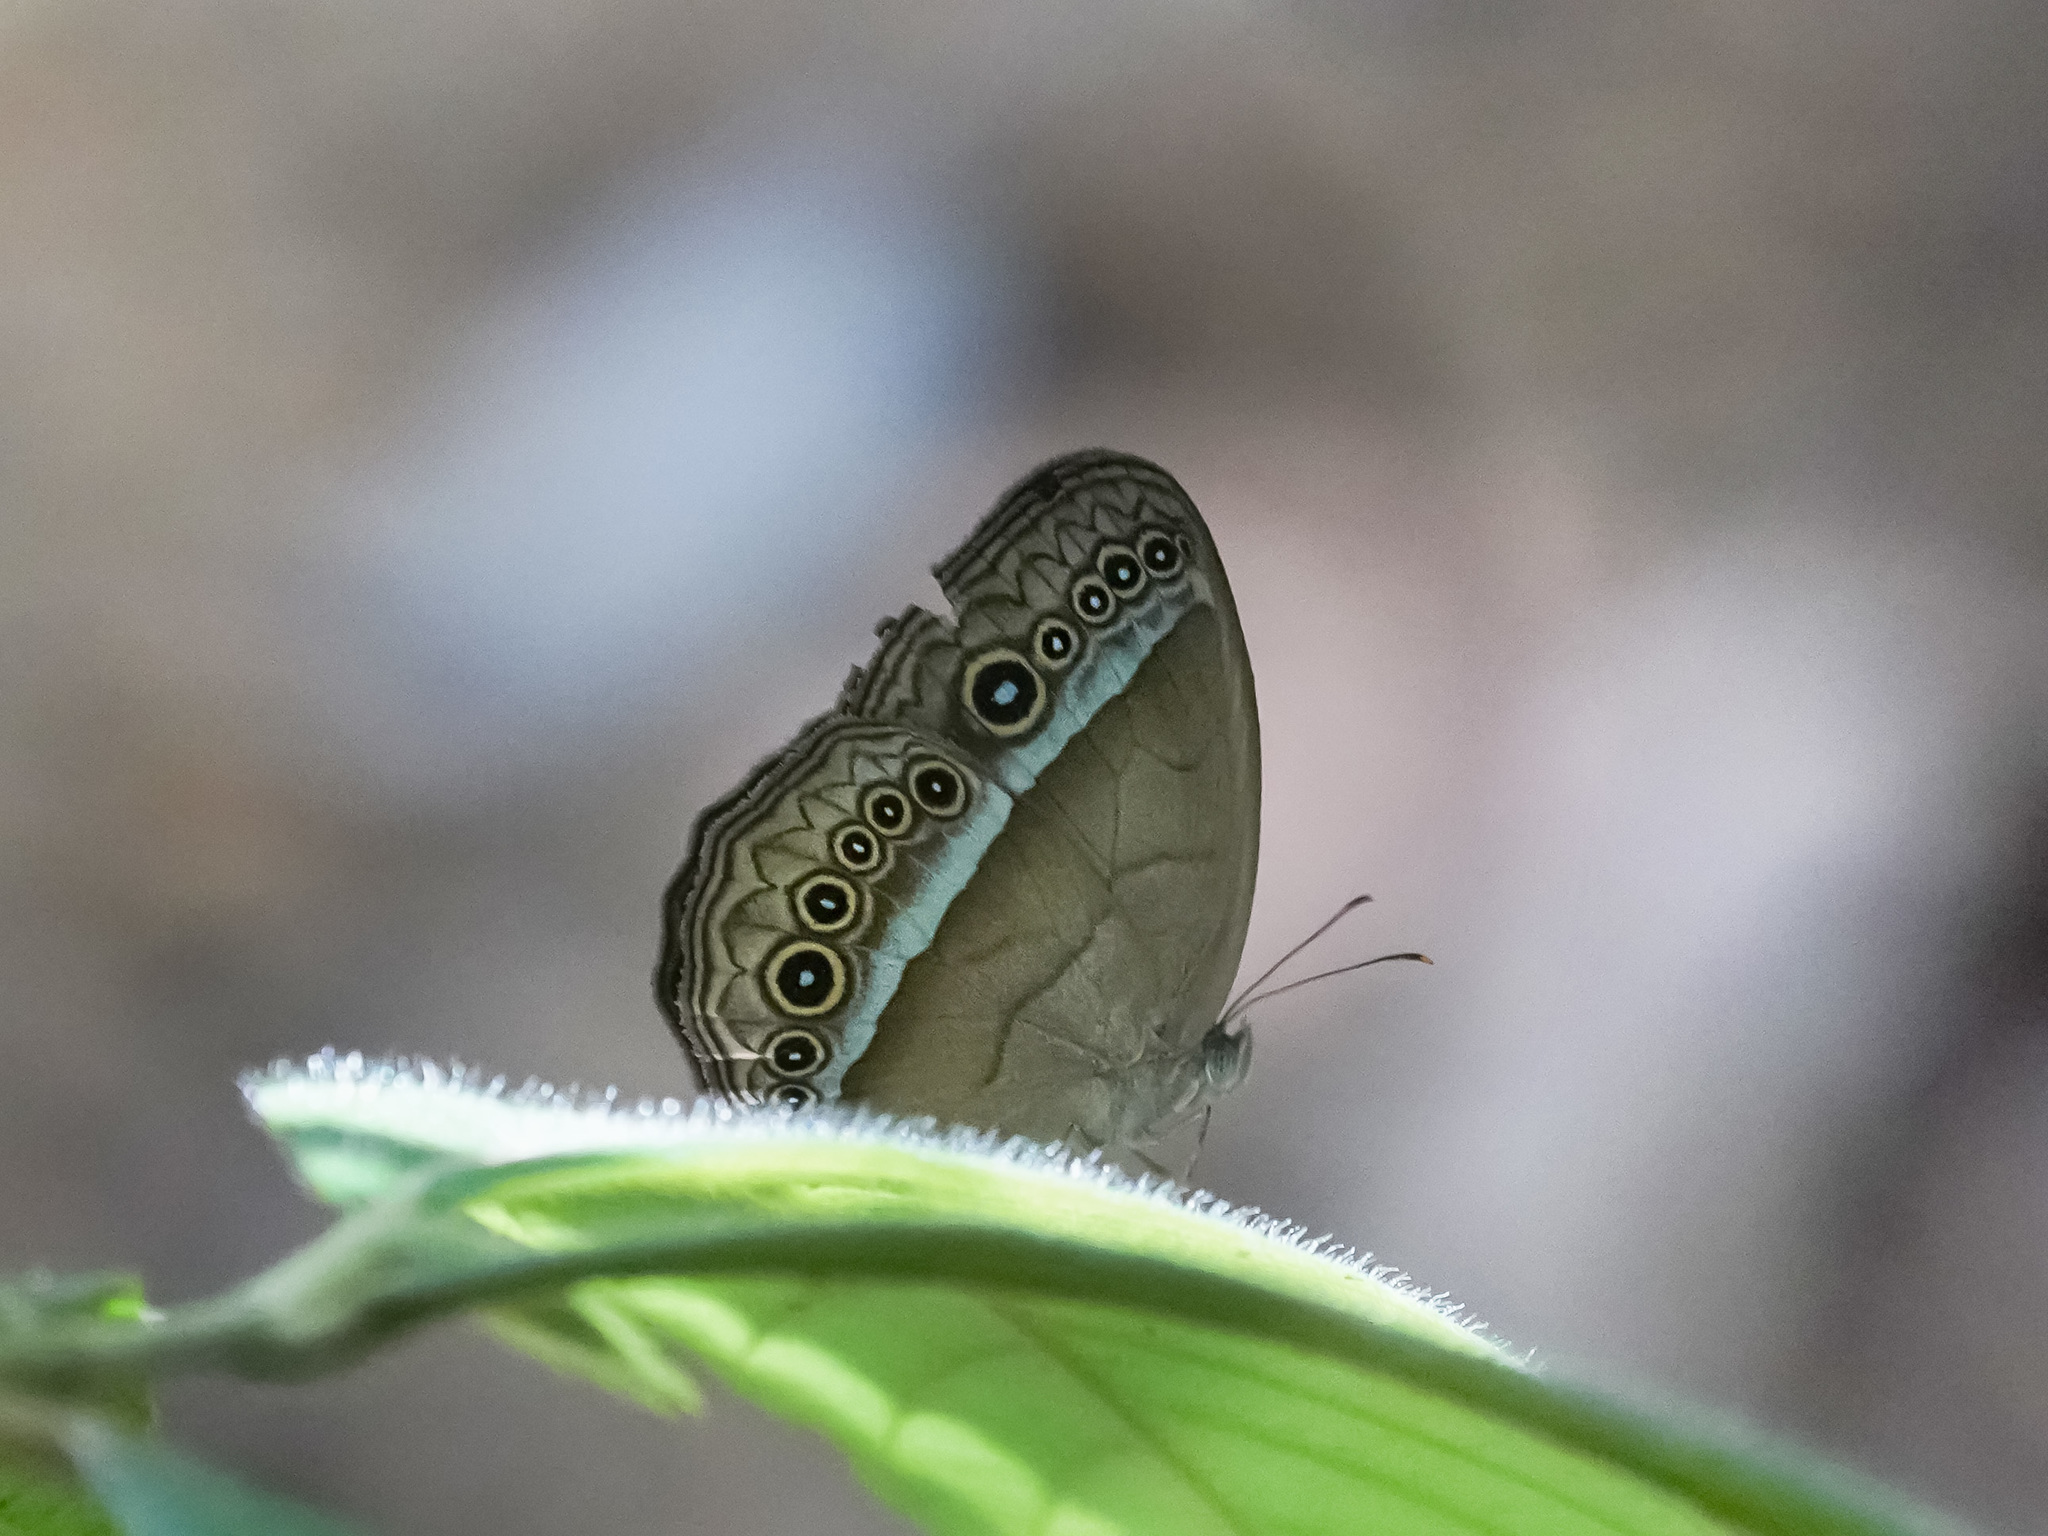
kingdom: Animalia
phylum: Arthropoda
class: Insecta
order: Lepidoptera
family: Nymphalidae
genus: Mycalesis
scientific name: Mycalesis orseis
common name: Purple bushbrown
